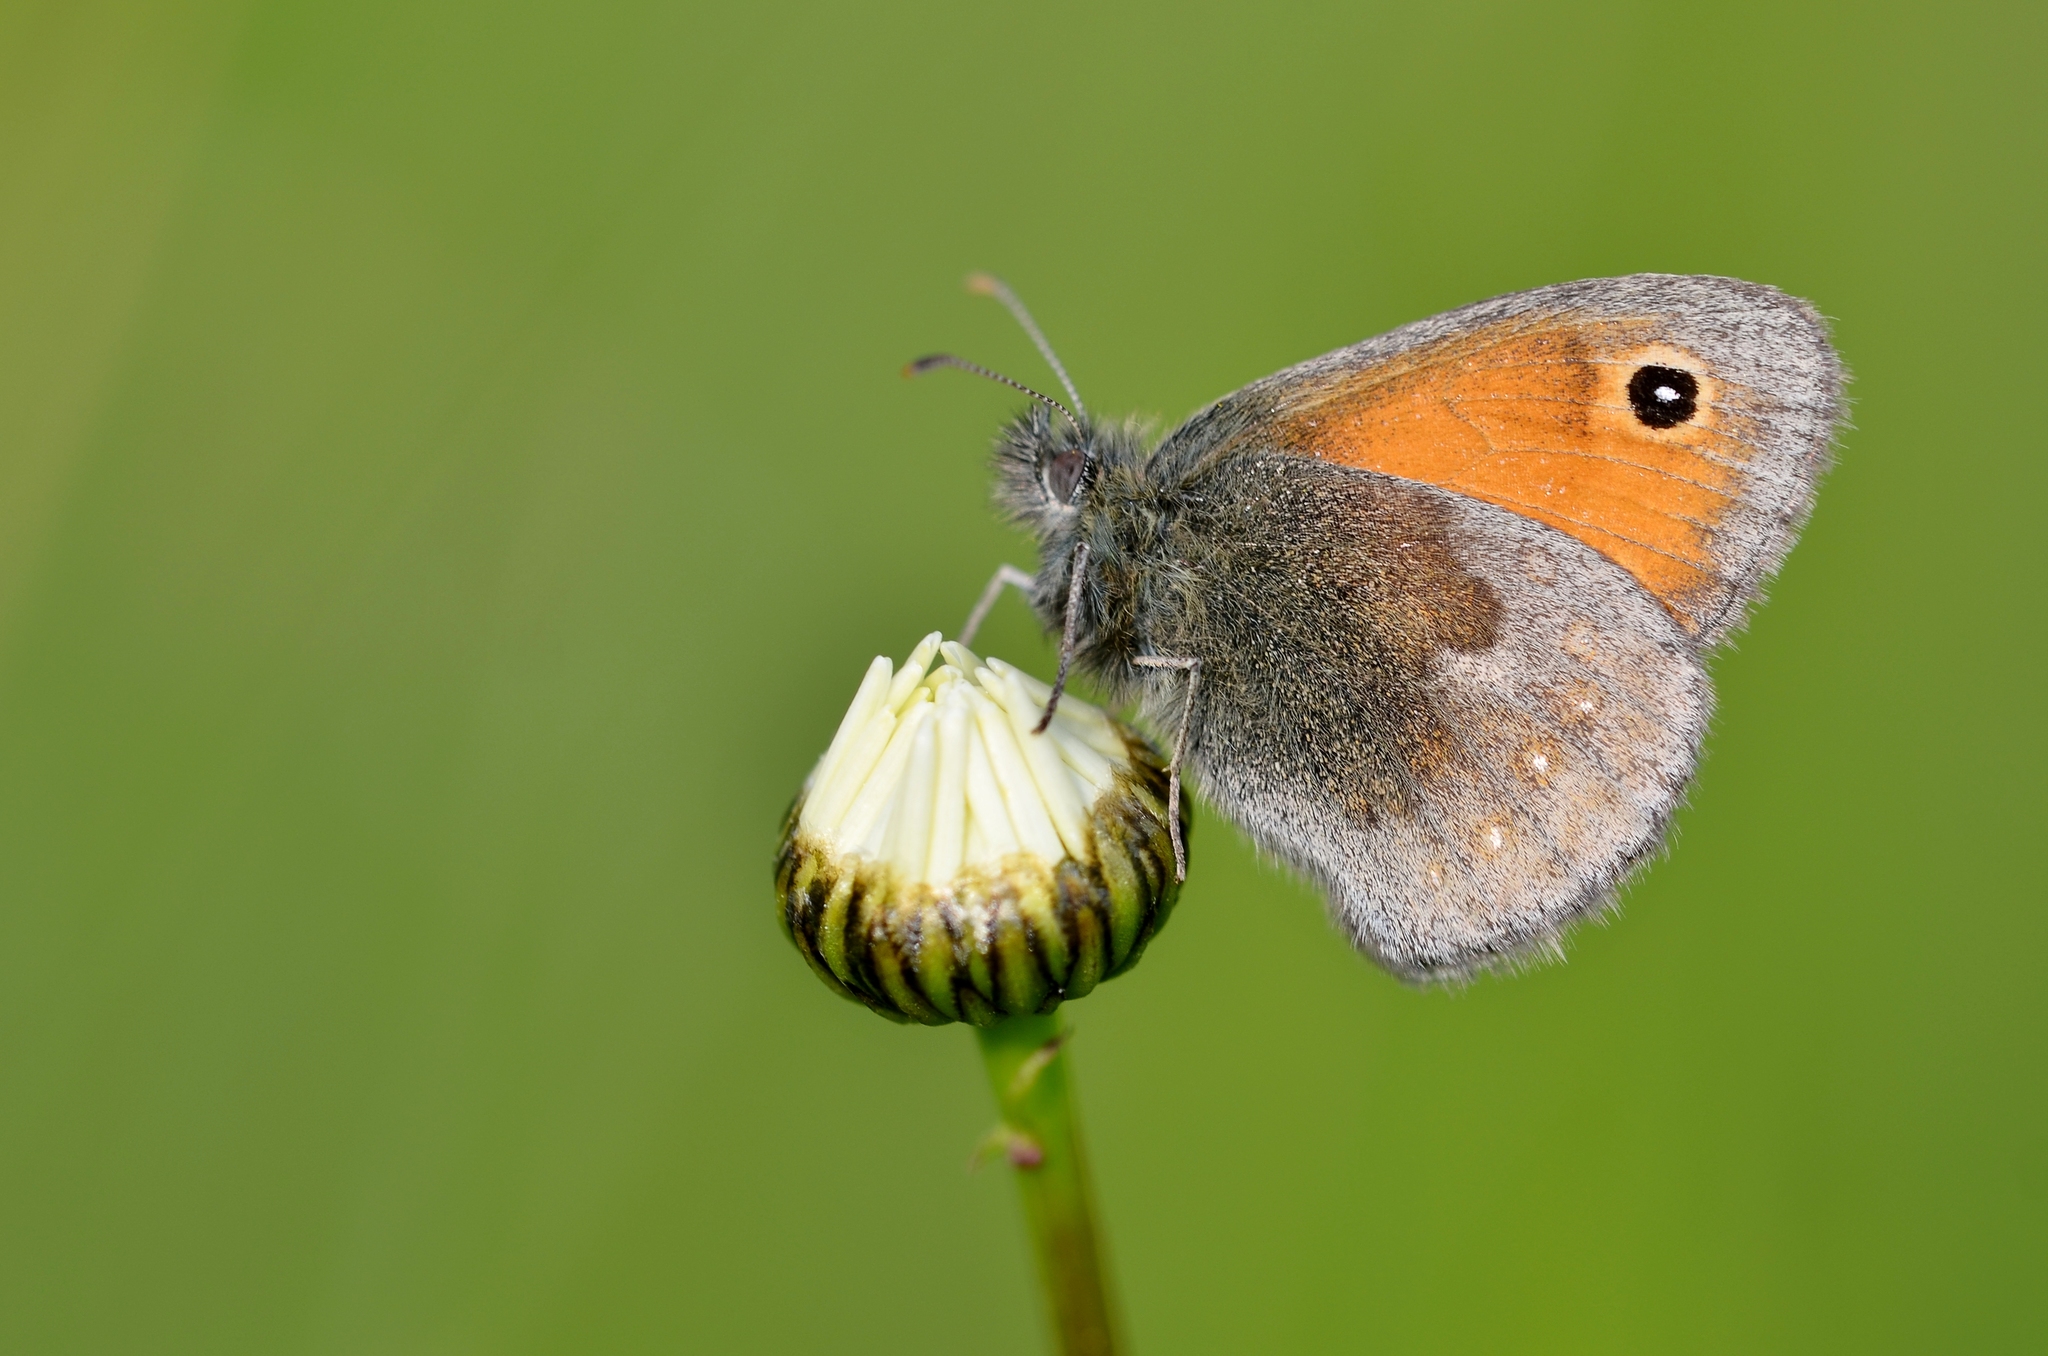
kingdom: Animalia
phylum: Arthropoda
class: Insecta
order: Lepidoptera
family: Nymphalidae
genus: Coenonympha
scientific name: Coenonympha pamphilus
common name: Small heath
